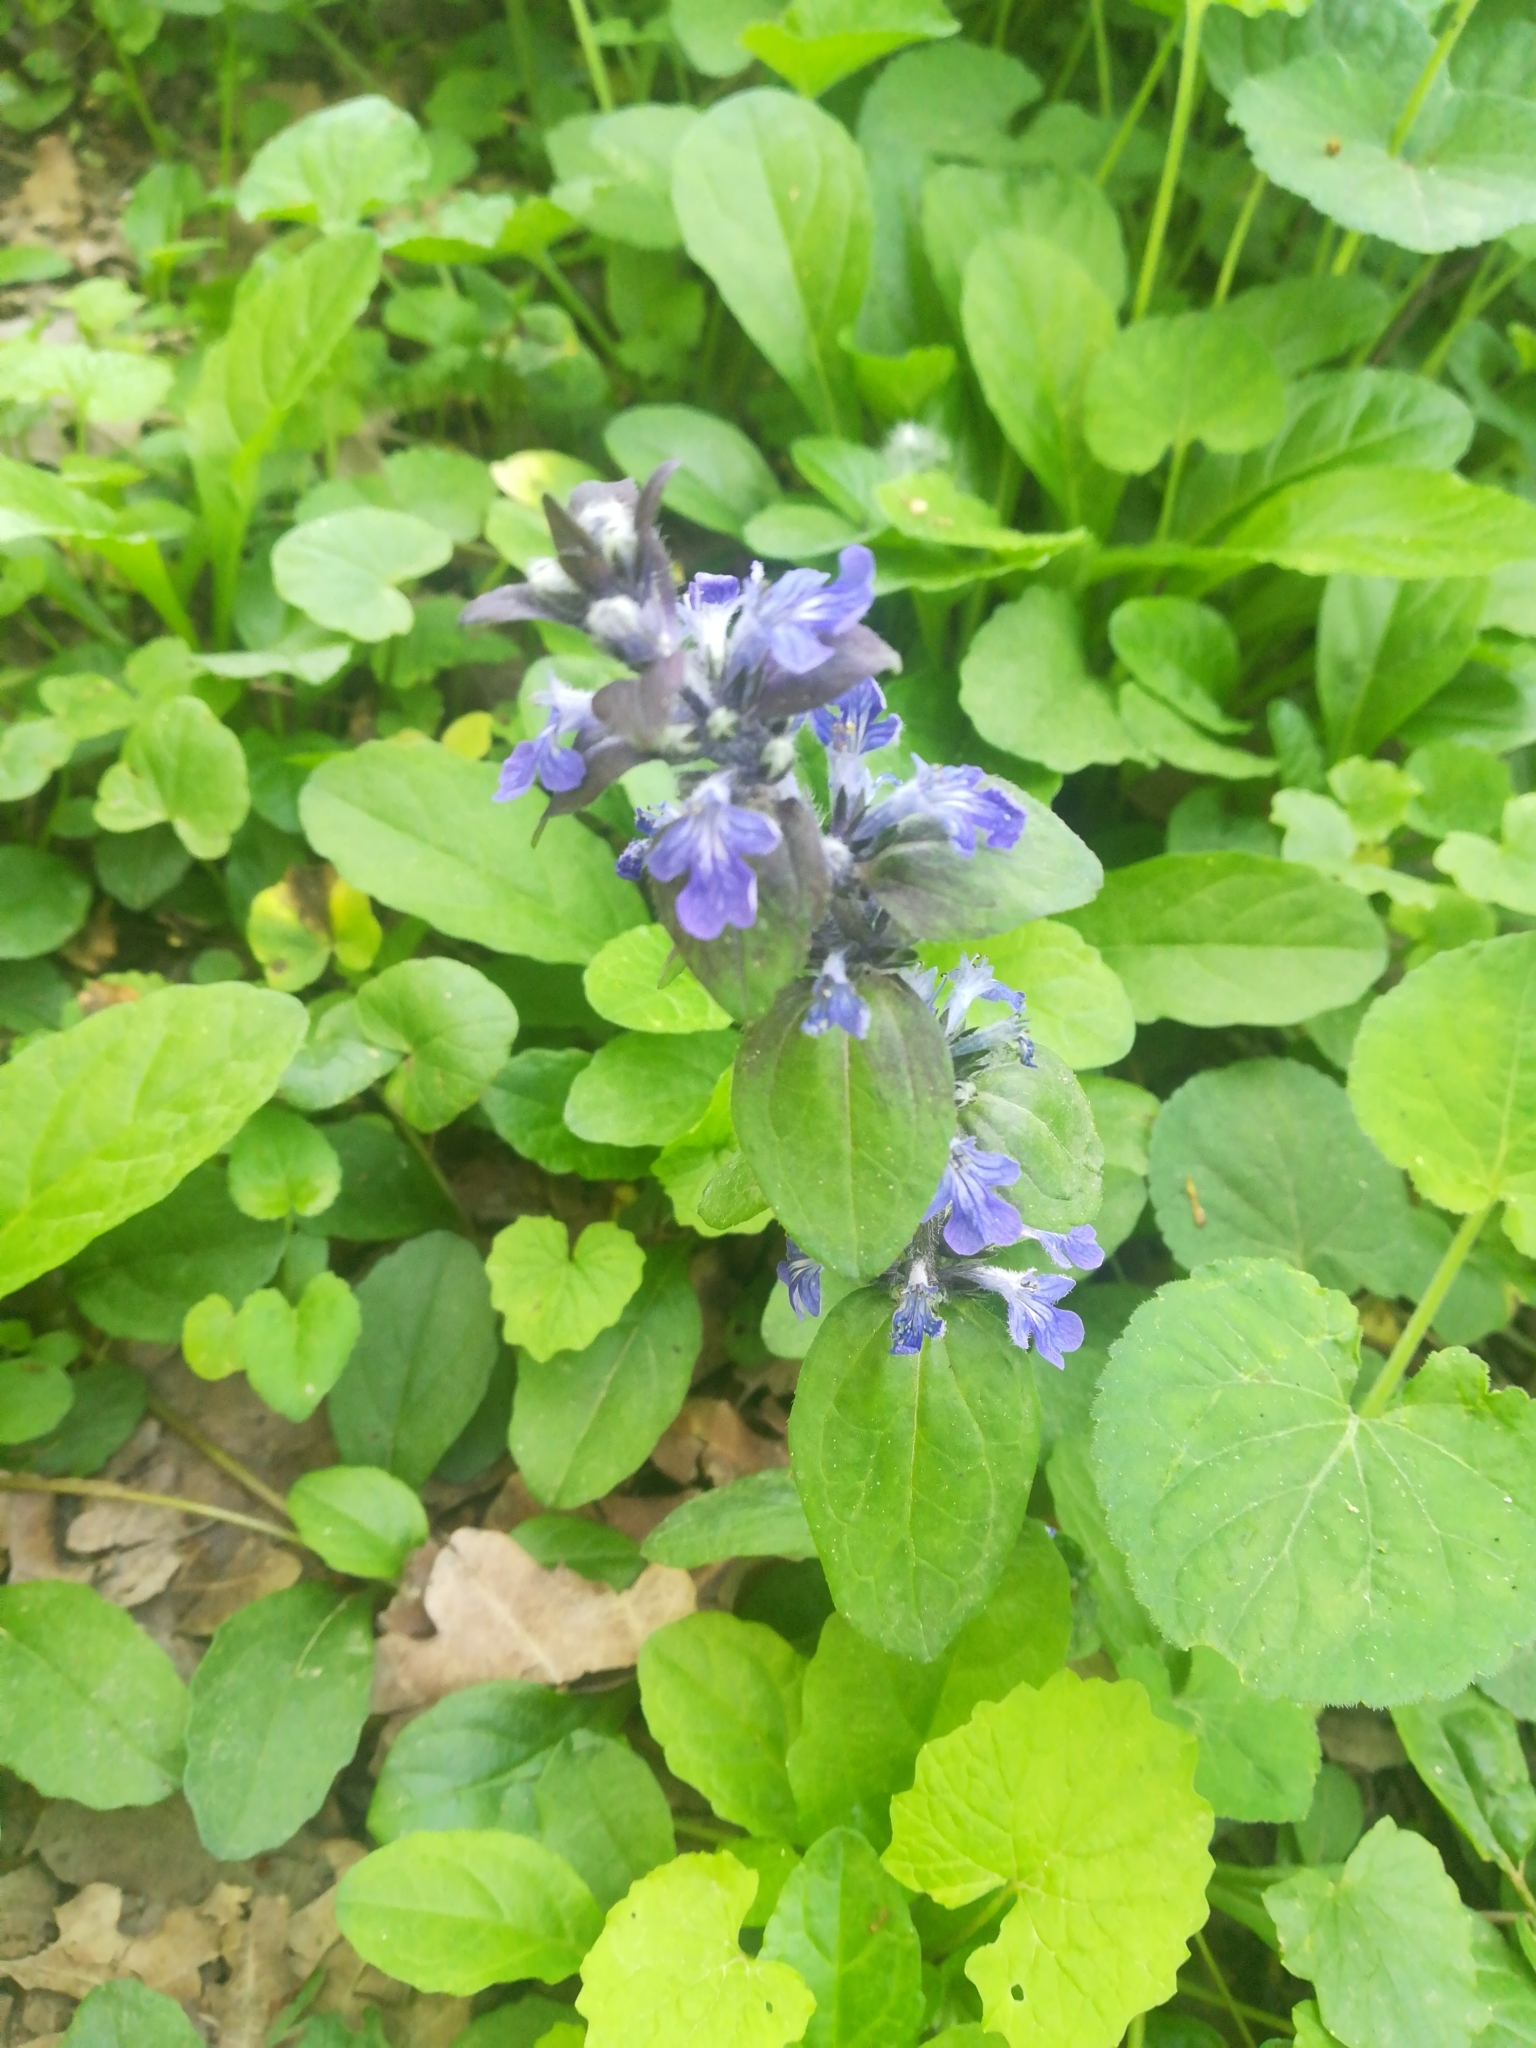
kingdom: Plantae
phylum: Tracheophyta
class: Magnoliopsida
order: Lamiales
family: Lamiaceae
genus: Ajuga
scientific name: Ajuga reptans
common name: Bugle
